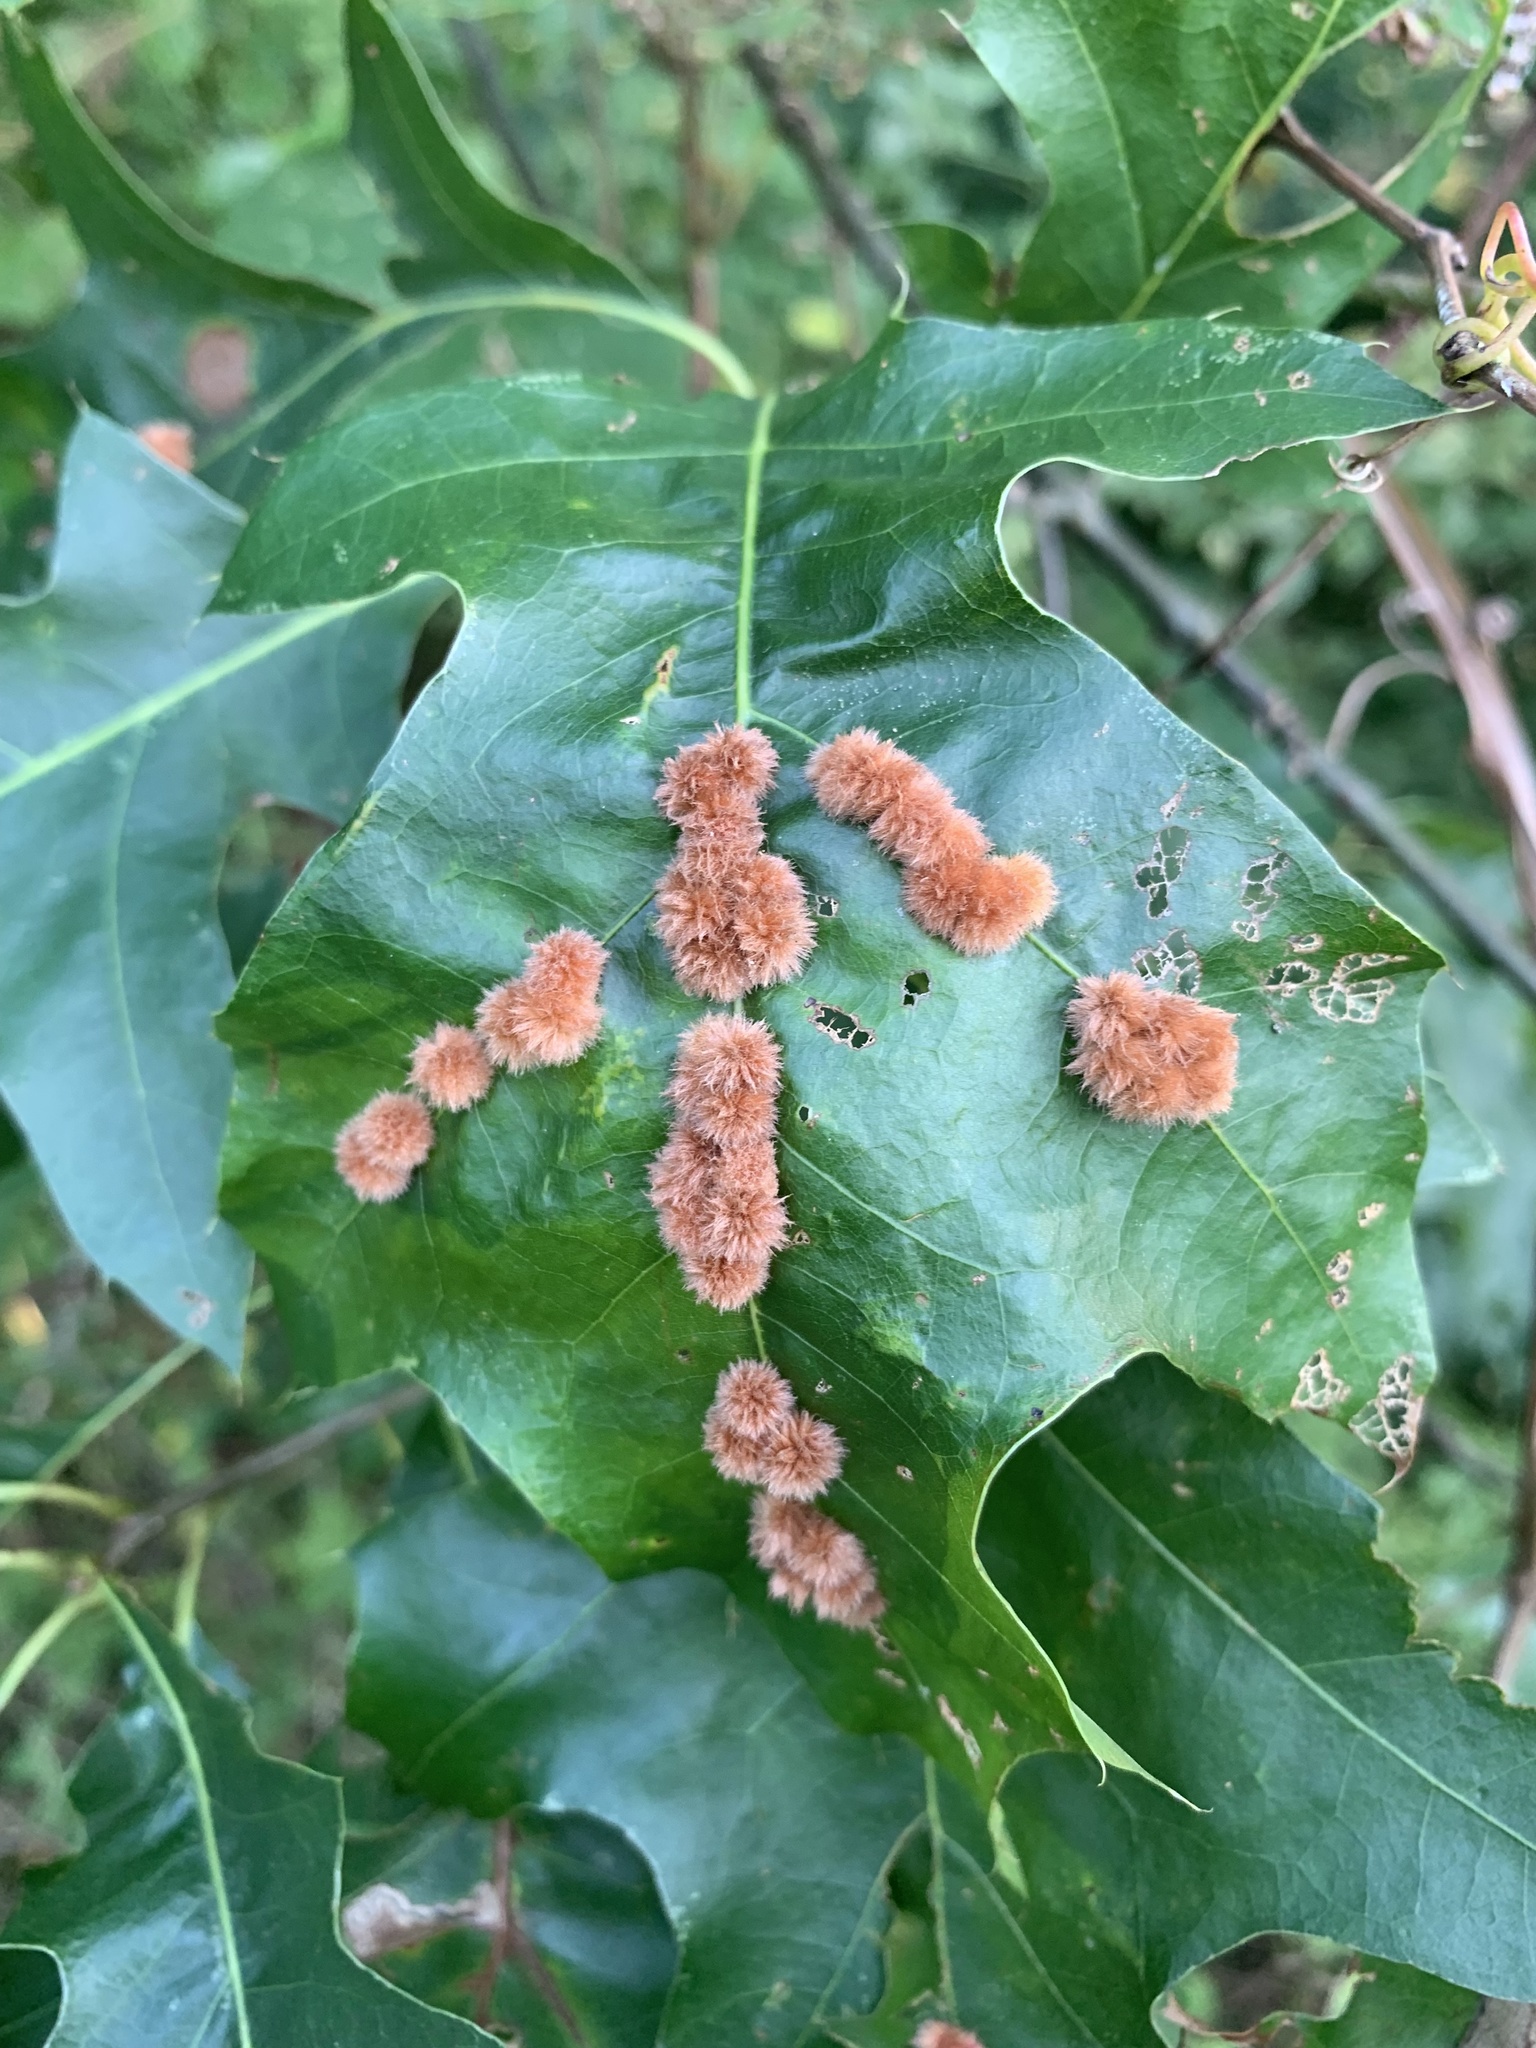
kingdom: Animalia
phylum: Arthropoda
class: Insecta
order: Hymenoptera
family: Cynipidae
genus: Callirhytis
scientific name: Callirhytis
